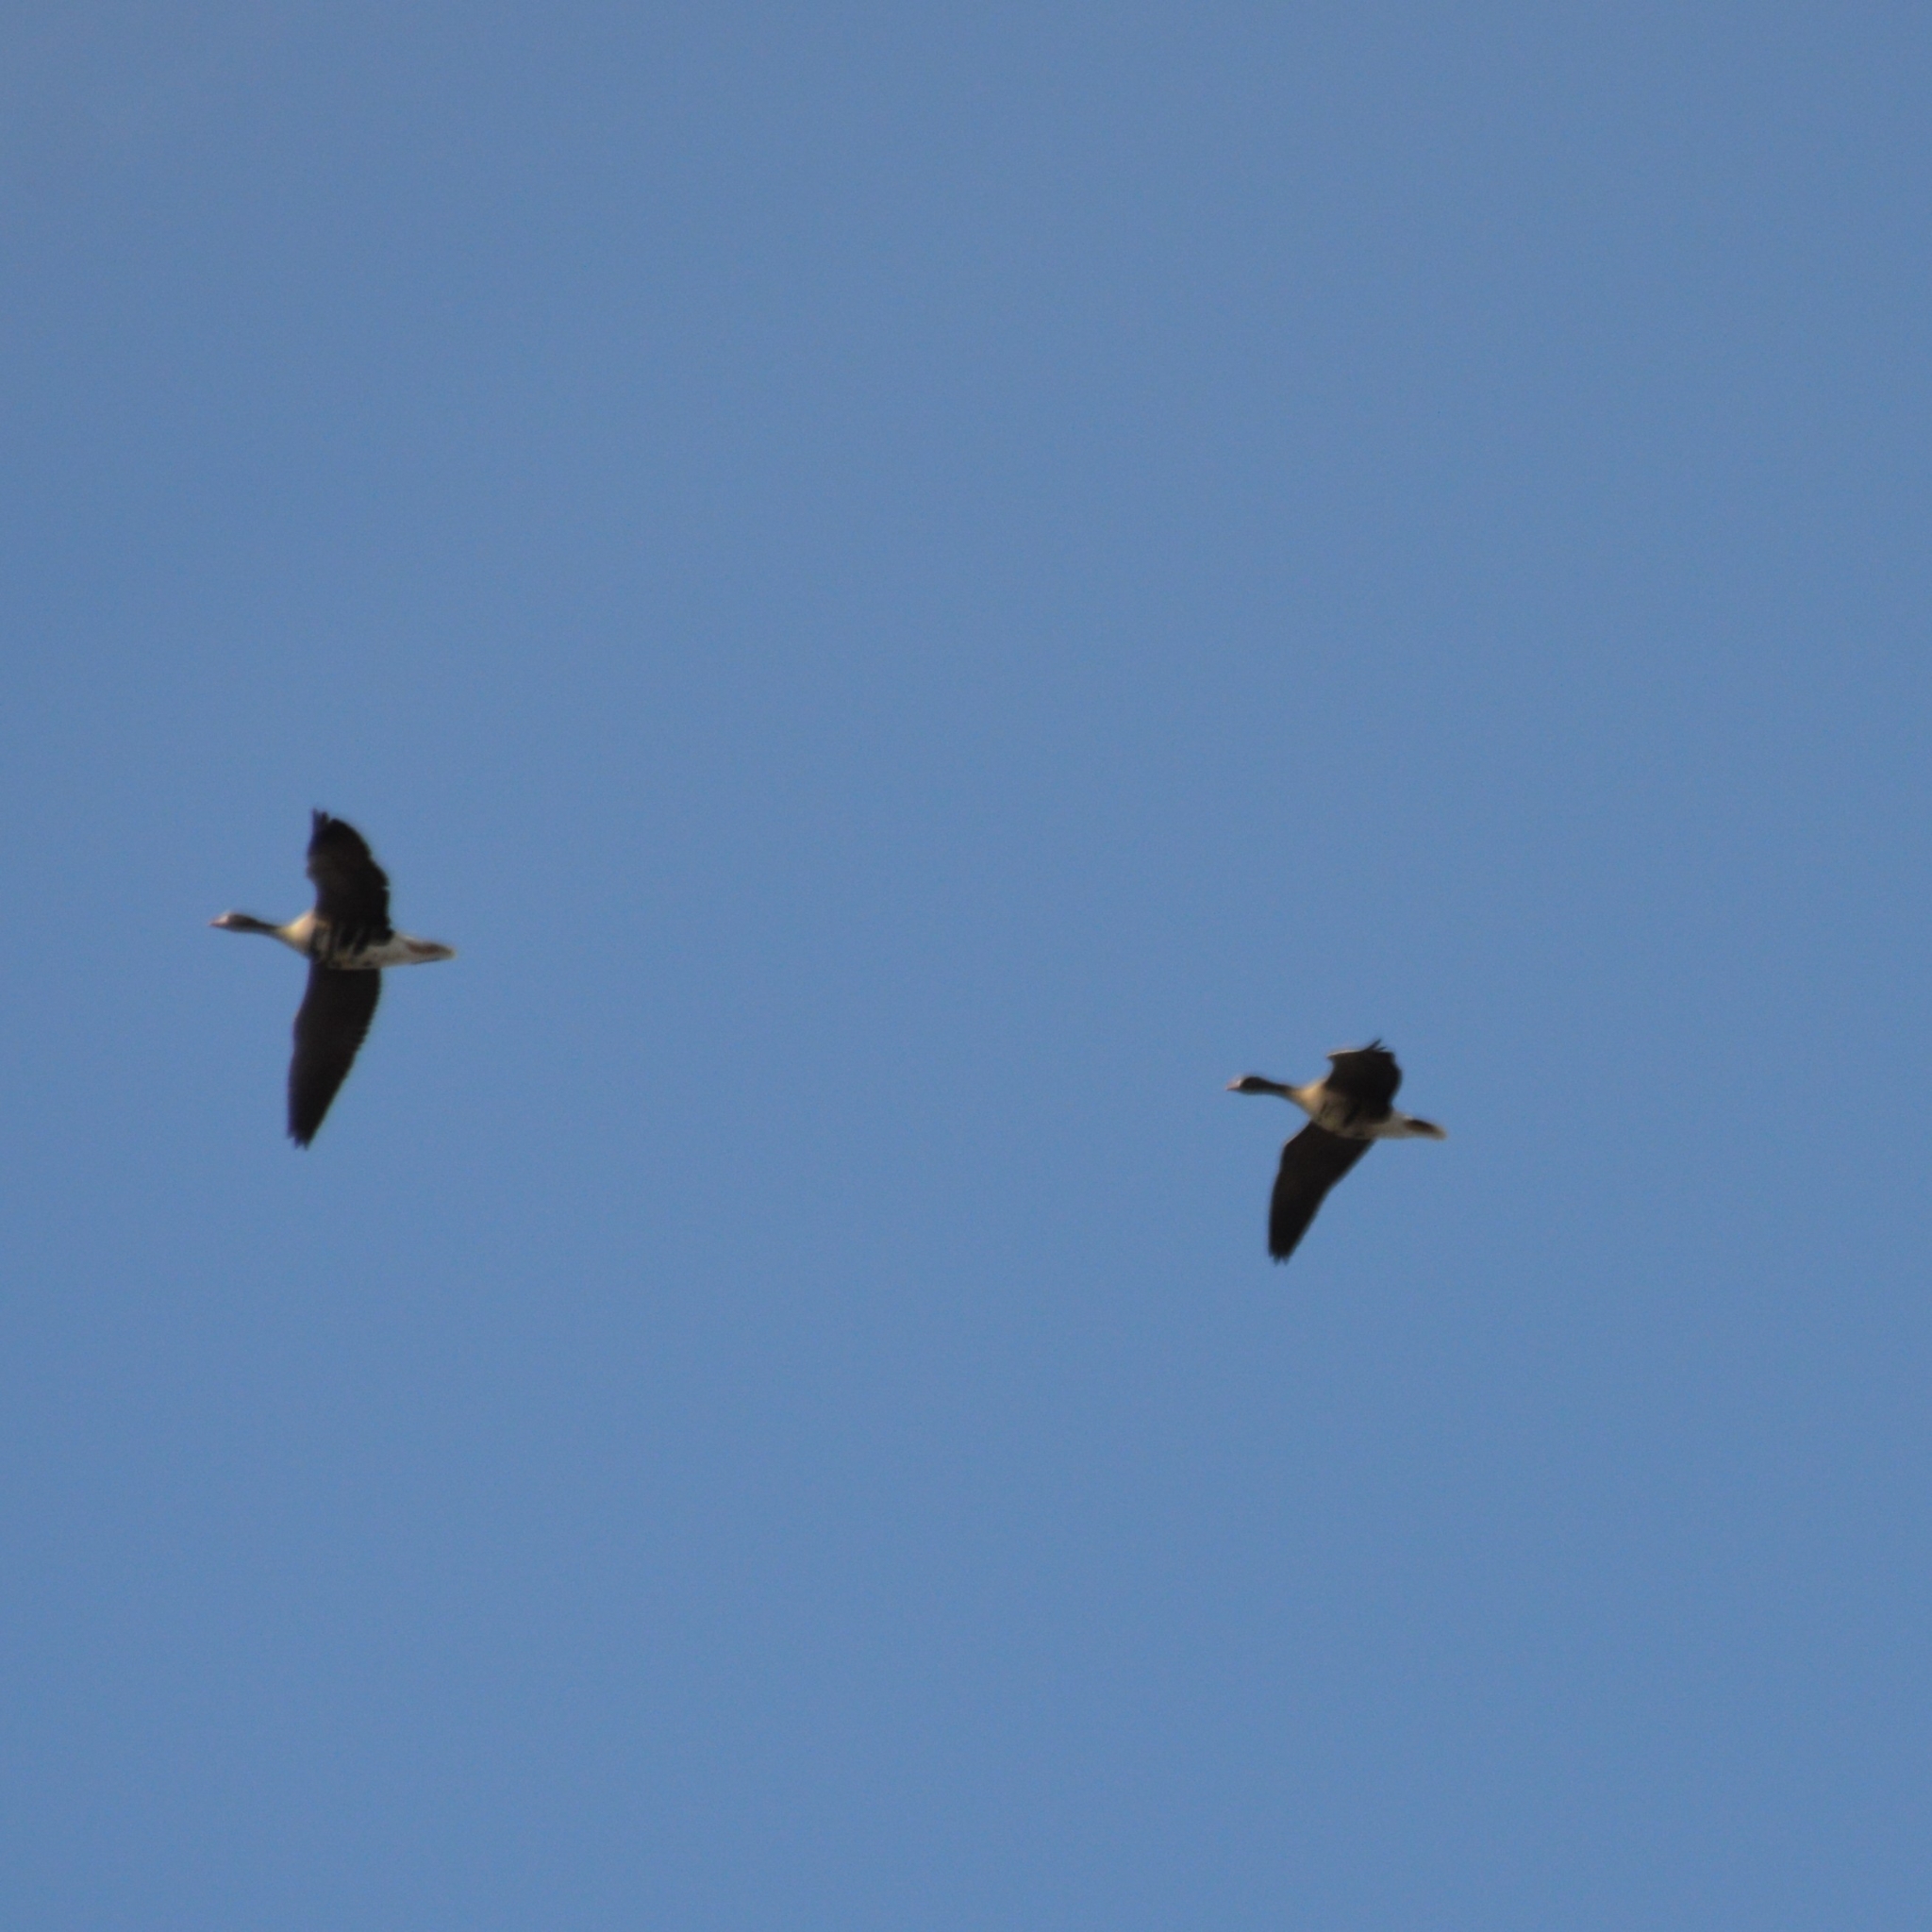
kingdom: Animalia
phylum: Chordata
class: Aves
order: Anseriformes
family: Anatidae
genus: Anser
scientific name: Anser albifrons
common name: Greater white-fronted goose
